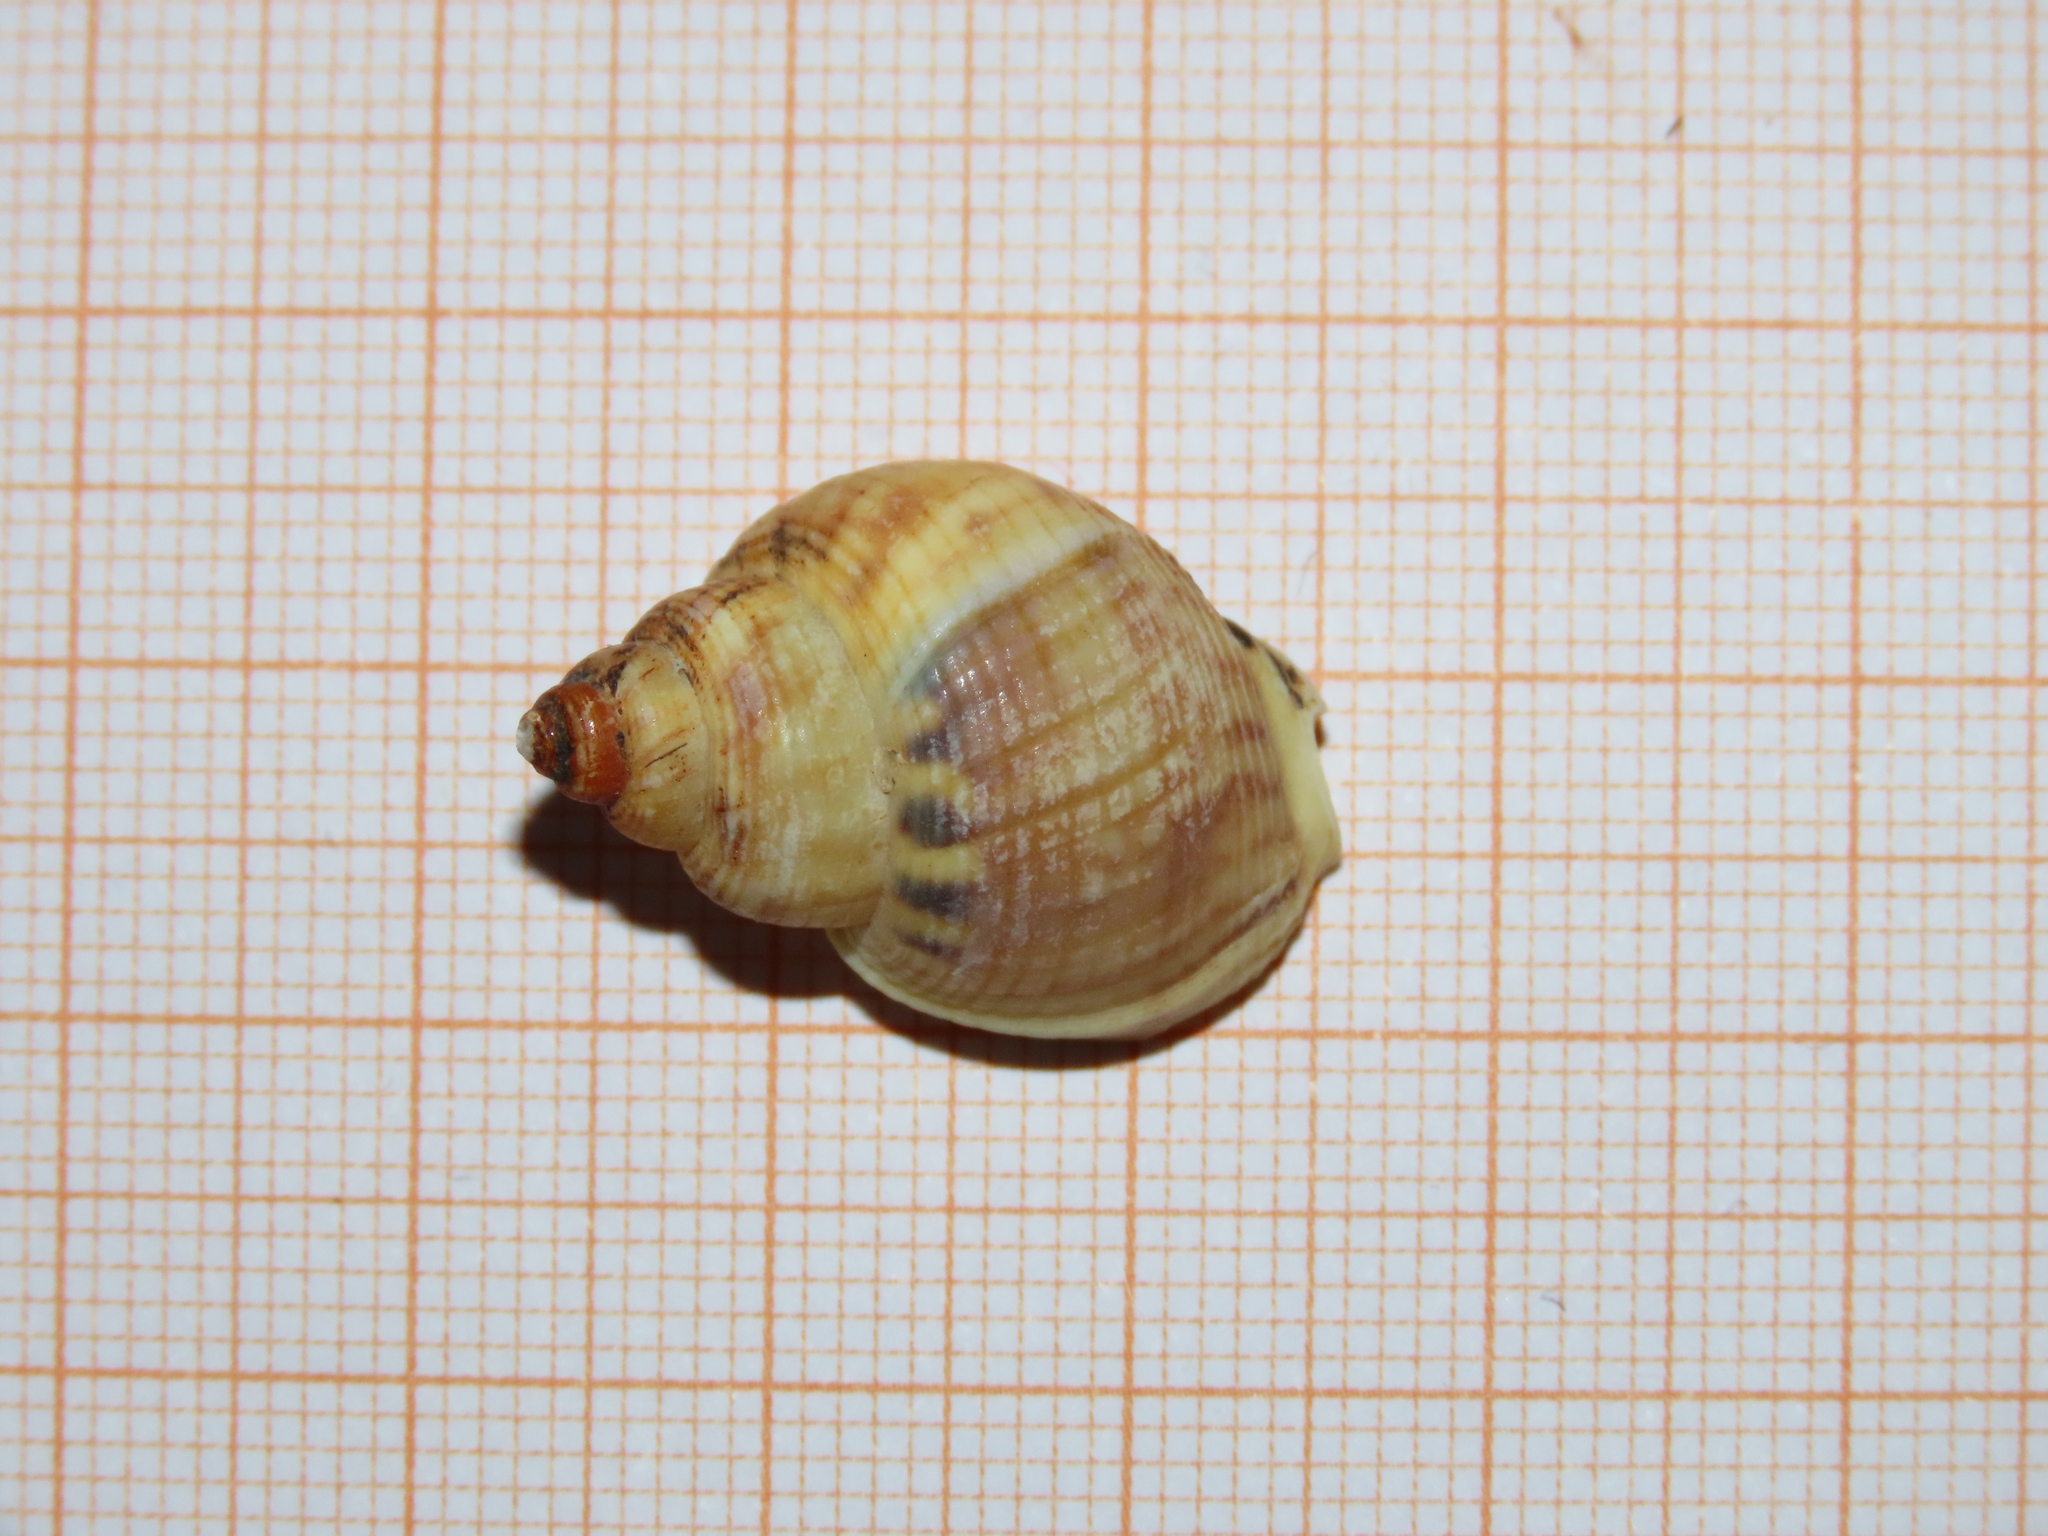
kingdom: Animalia
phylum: Mollusca
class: Gastropoda
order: Neogastropoda
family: Nassariidae
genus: Tritia
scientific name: Tritia mutabilis
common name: Mutable nassa
